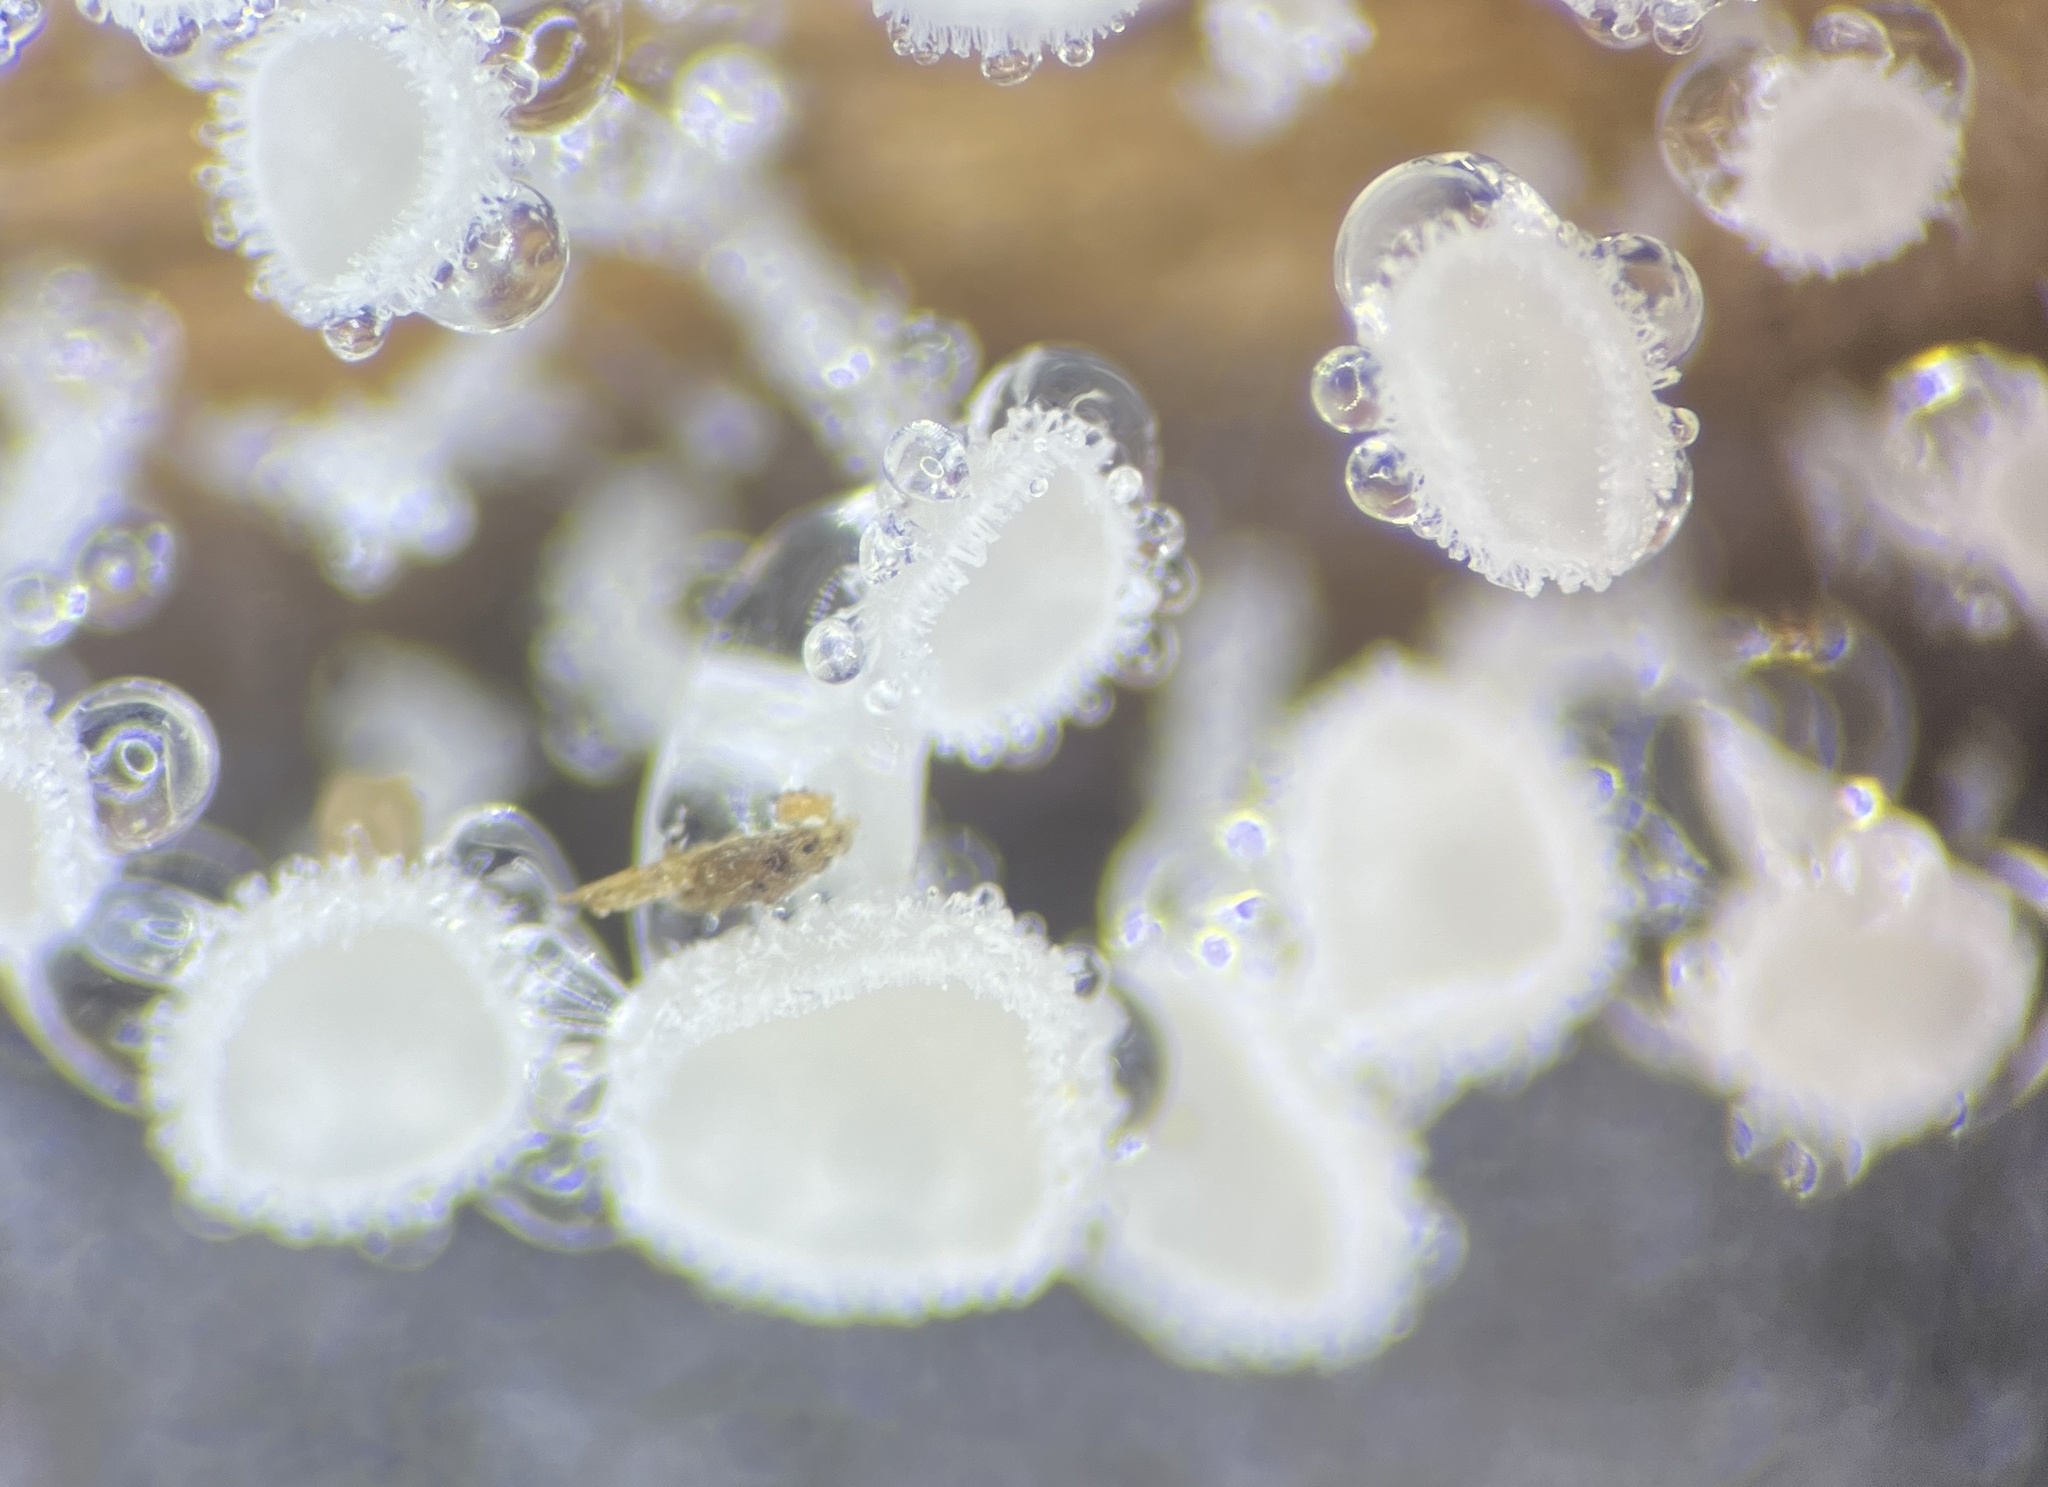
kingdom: Fungi
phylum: Ascomycota
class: Leotiomycetes
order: Helotiales
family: Lachnaceae
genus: Lachnum
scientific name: Lachnum virgineum
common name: Snowy disco
